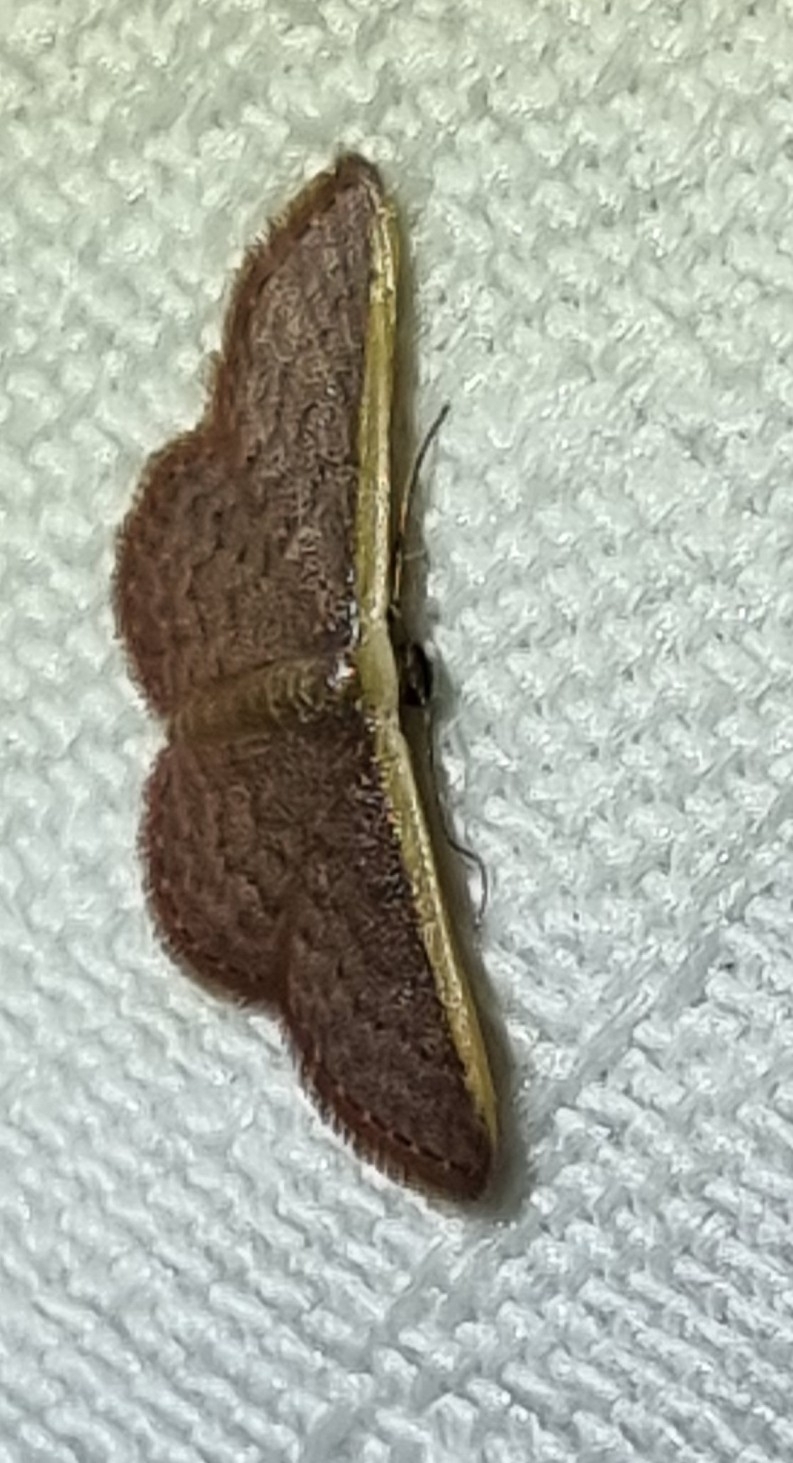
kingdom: Animalia
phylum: Arthropoda
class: Insecta
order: Lepidoptera
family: Geometridae
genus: Idaea
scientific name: Idaea inversata
